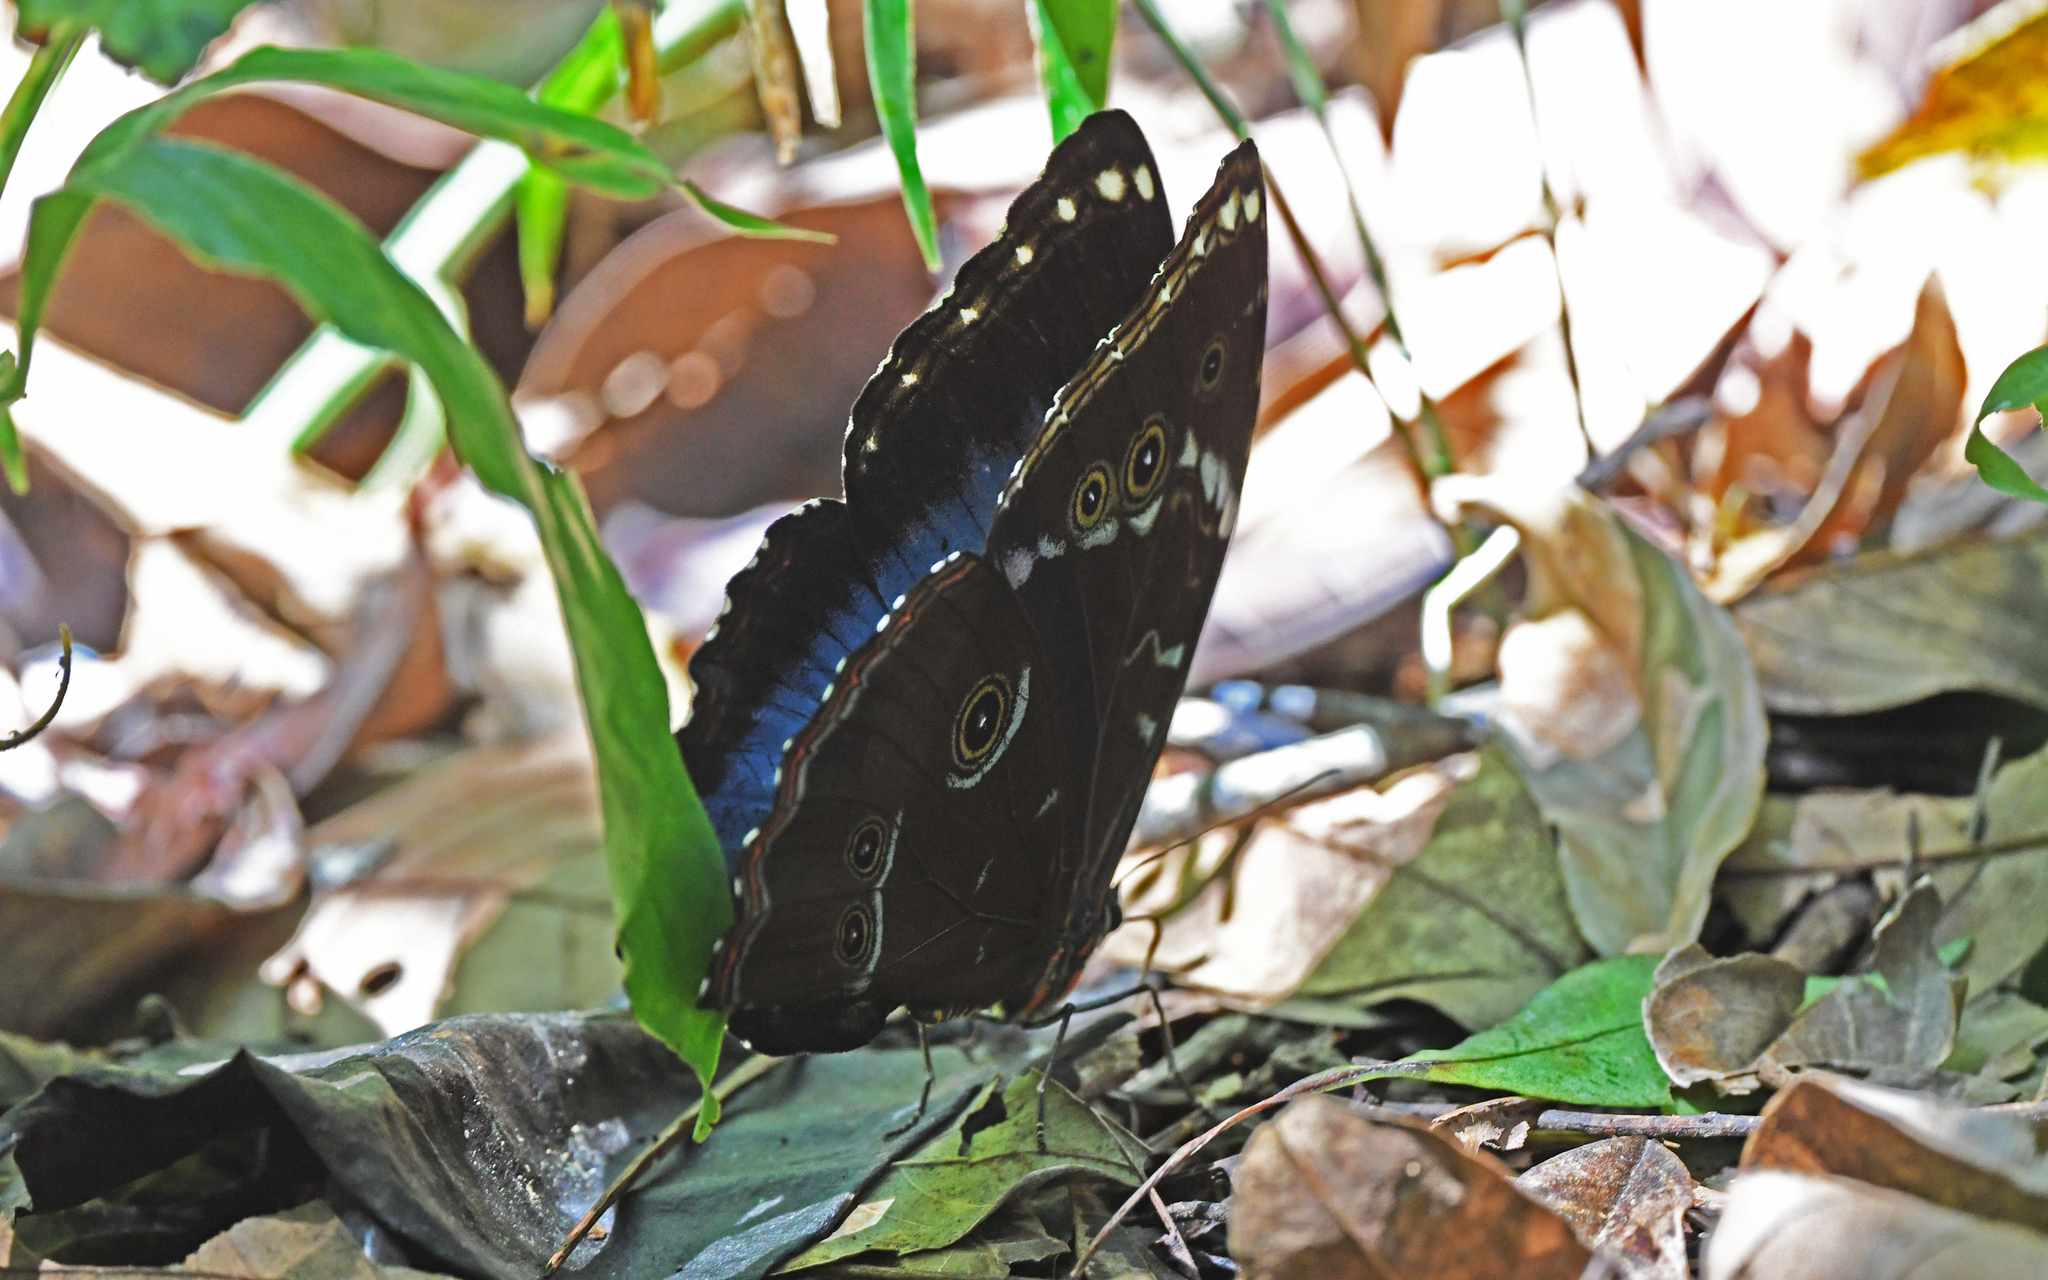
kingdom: Animalia
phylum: Arthropoda
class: Insecta
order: Lepidoptera
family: Nymphalidae
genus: Morpho
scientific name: Morpho achilles
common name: Achilles morpho
